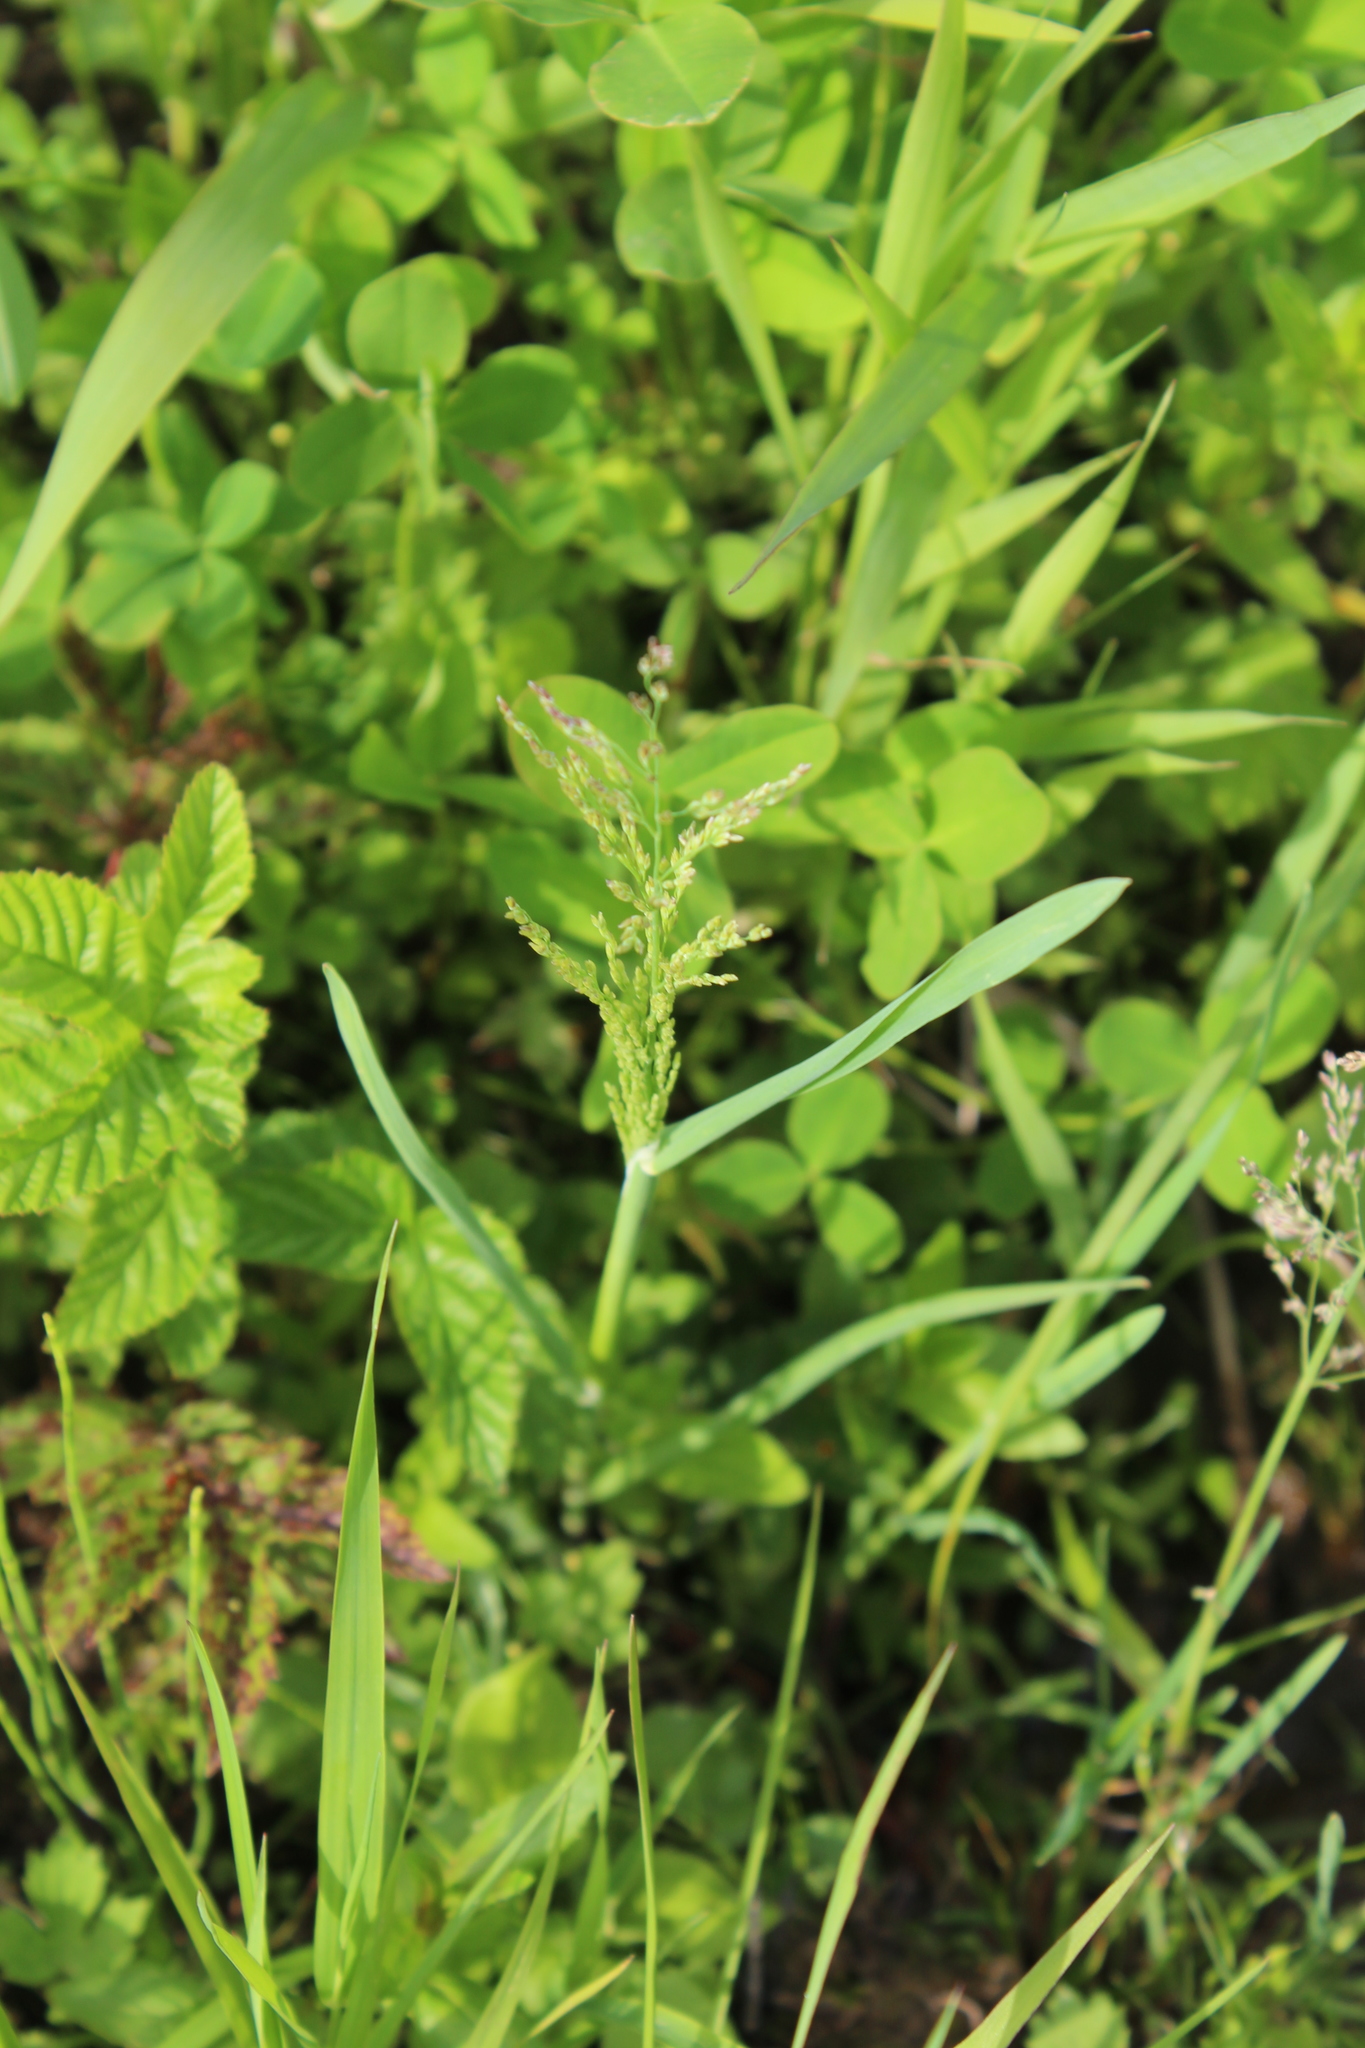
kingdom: Plantae
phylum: Tracheophyta
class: Liliopsida
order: Poales
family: Poaceae
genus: Catabrosa
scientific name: Catabrosa aquatica
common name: Whorl-grass
